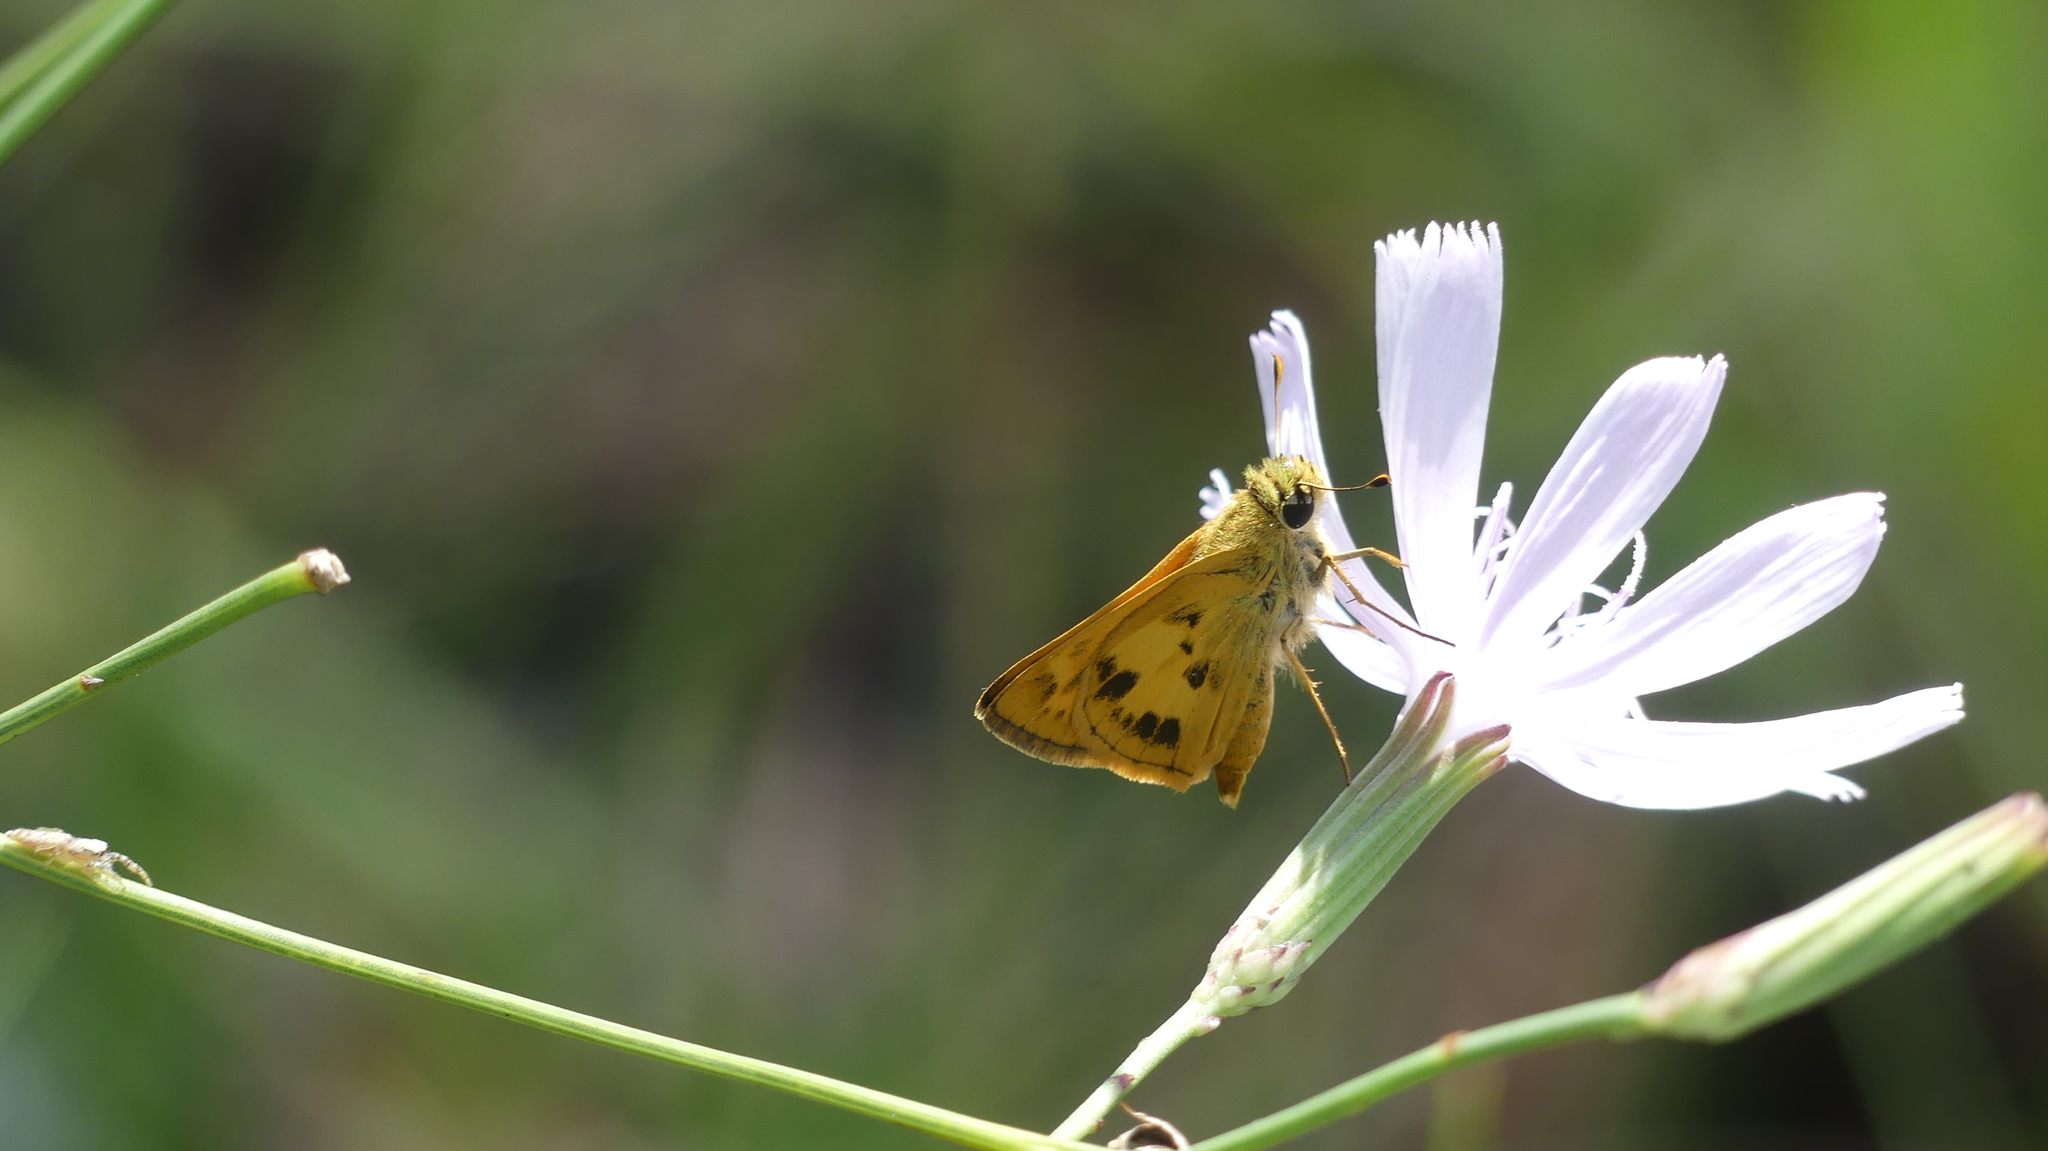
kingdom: Animalia
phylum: Arthropoda
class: Insecta
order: Lepidoptera
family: Hesperiidae
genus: Polites
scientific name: Polites vibex
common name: Whirlabout
